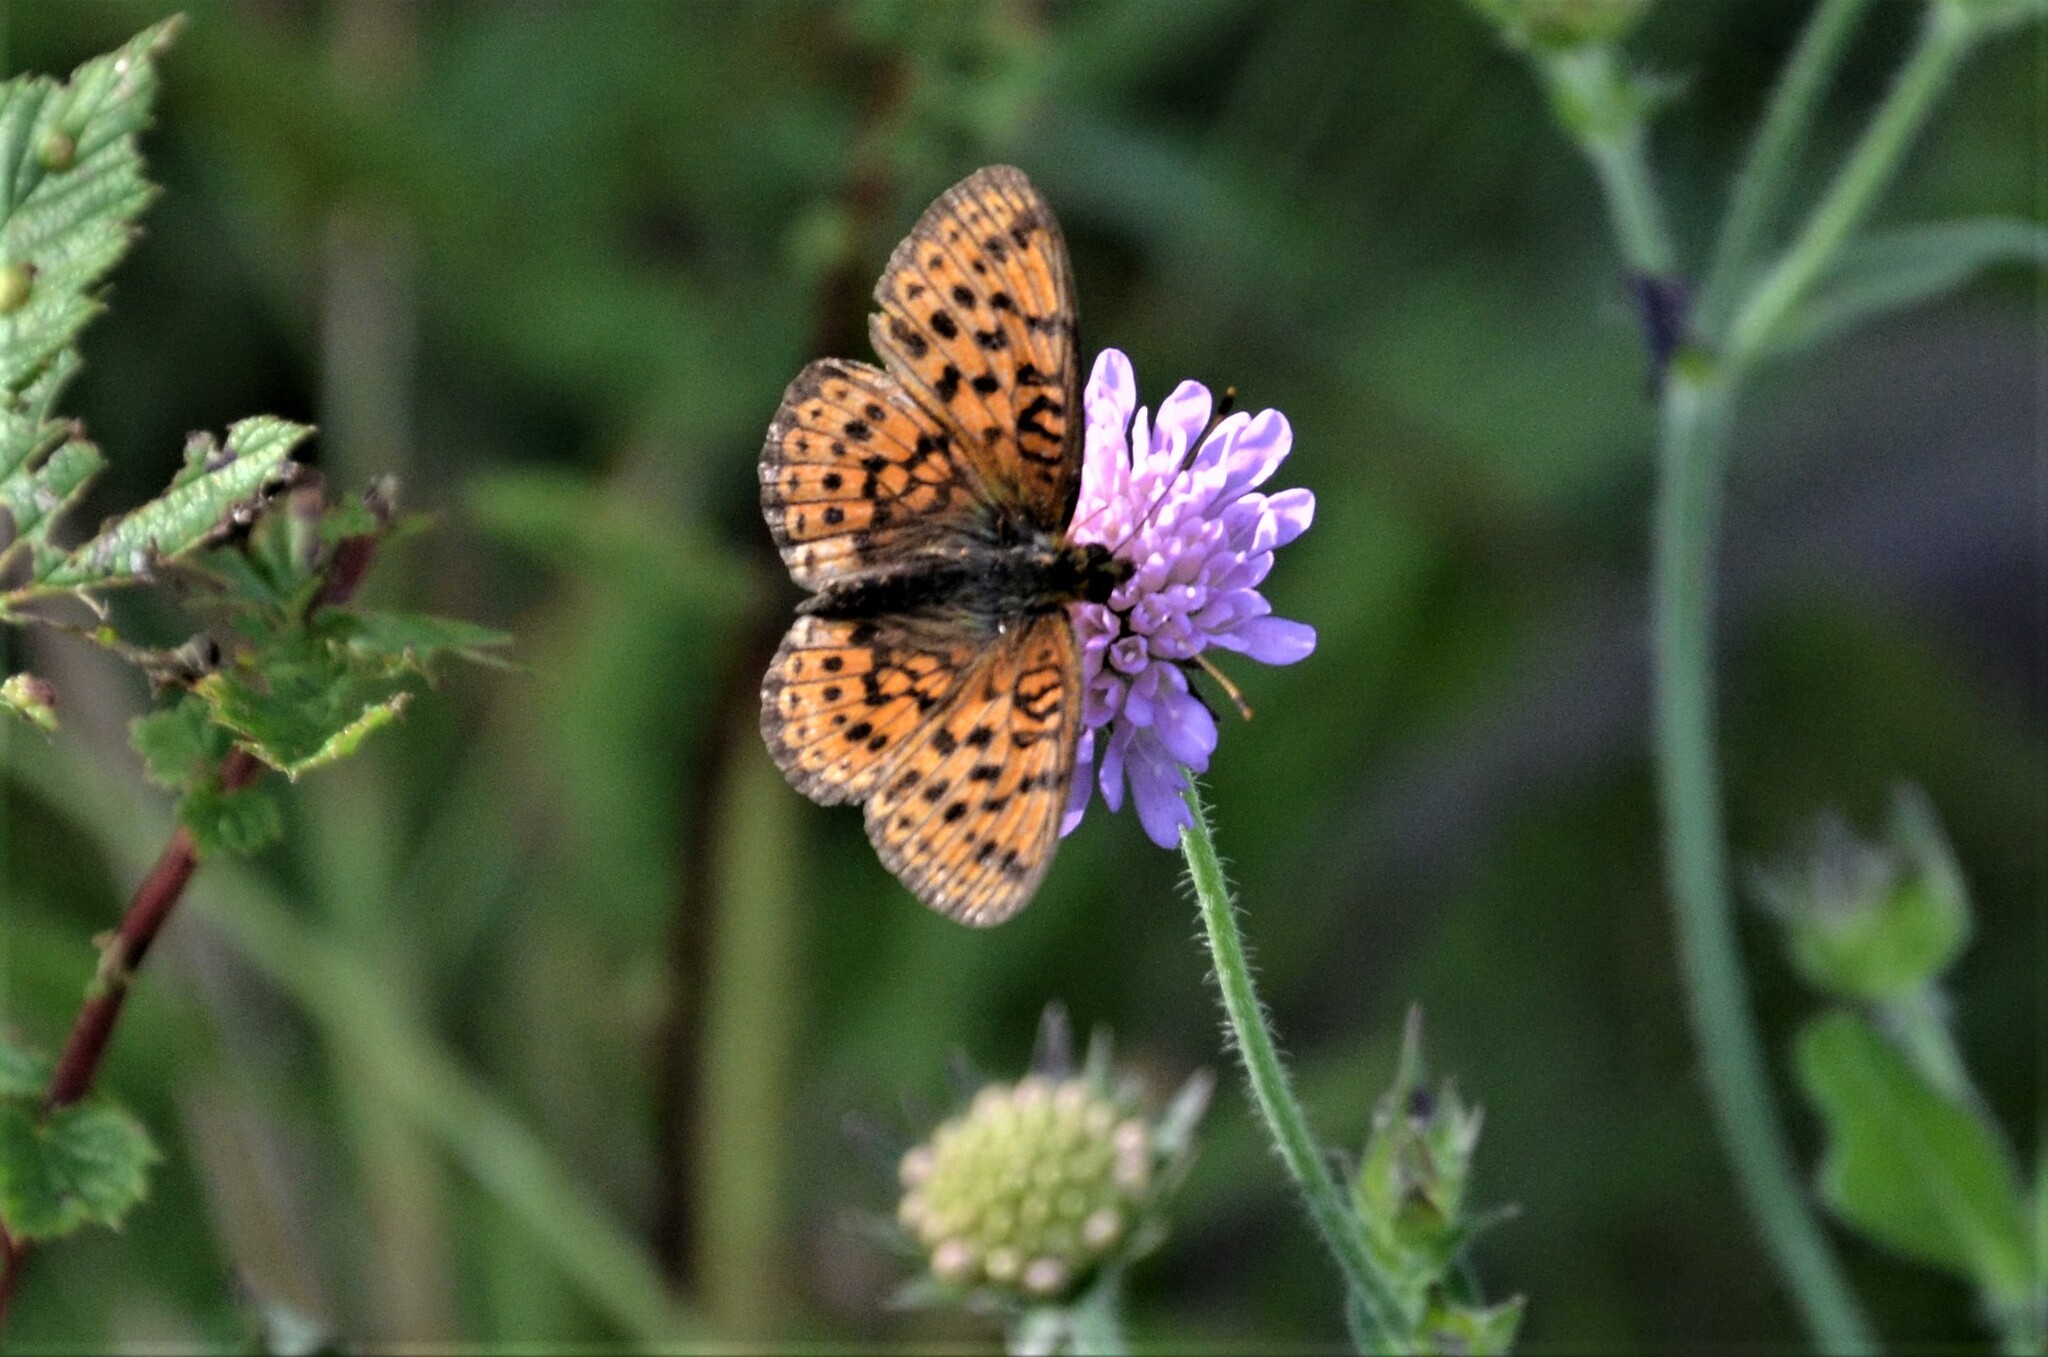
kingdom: Animalia
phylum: Arthropoda
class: Insecta
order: Lepidoptera
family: Nymphalidae
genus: Brenthis
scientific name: Brenthis ino
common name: Lesser marbled fritillary
